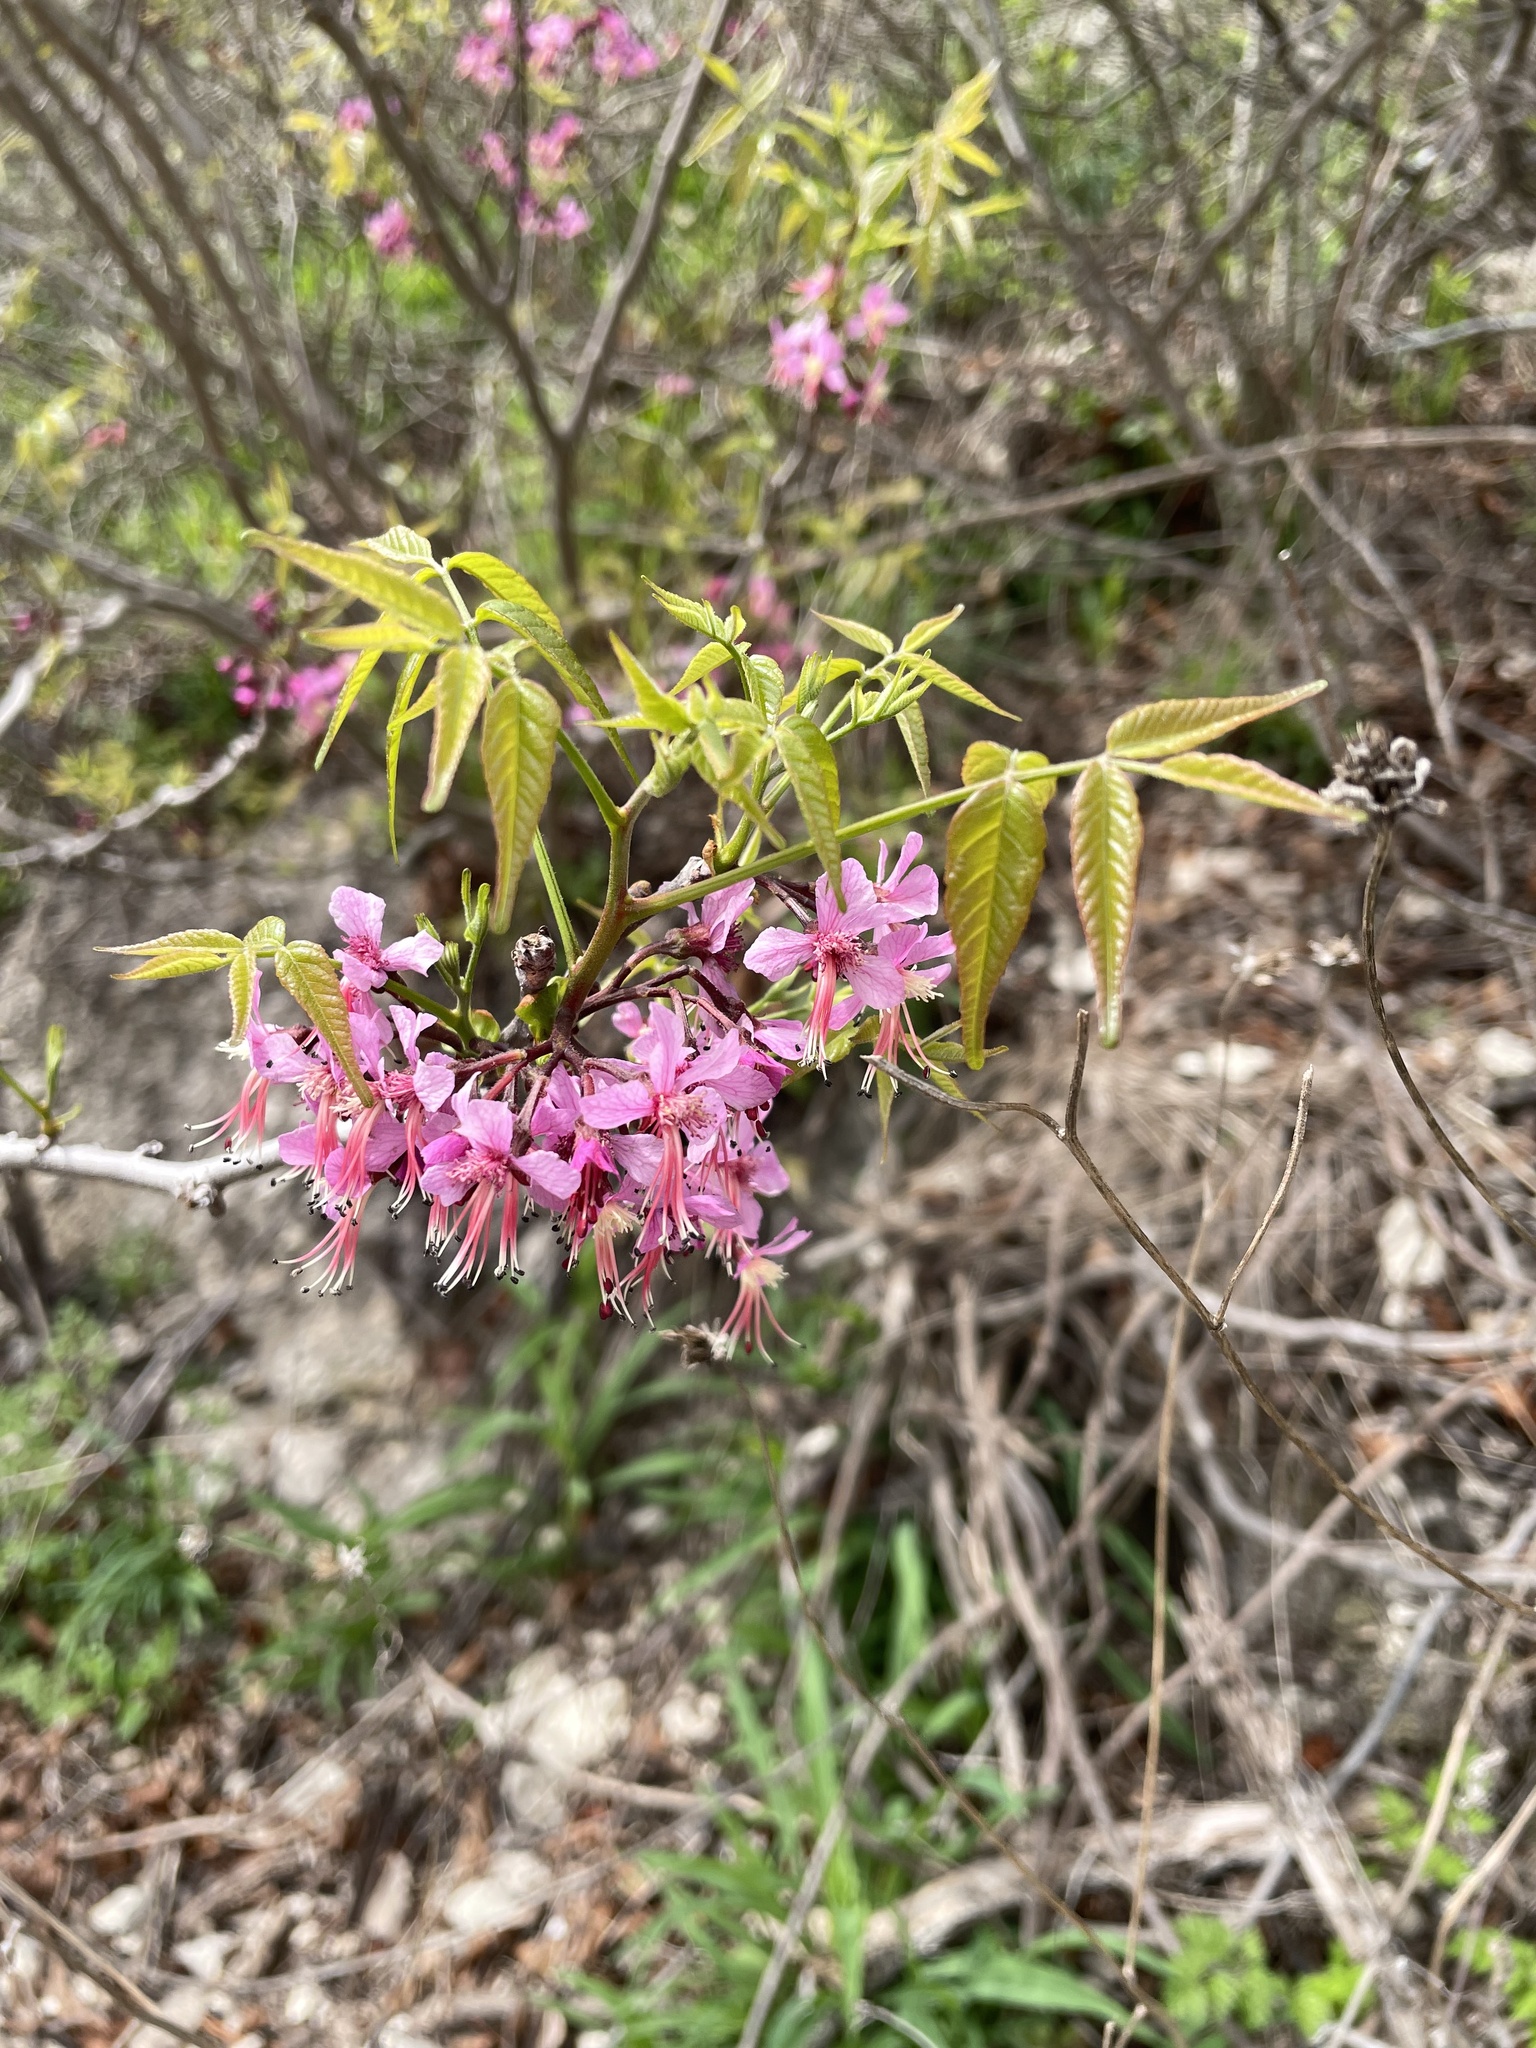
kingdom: Plantae
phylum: Tracheophyta
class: Magnoliopsida
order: Sapindales
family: Sapindaceae
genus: Ungnadia
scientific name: Ungnadia speciosa
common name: Texas-buckeye
